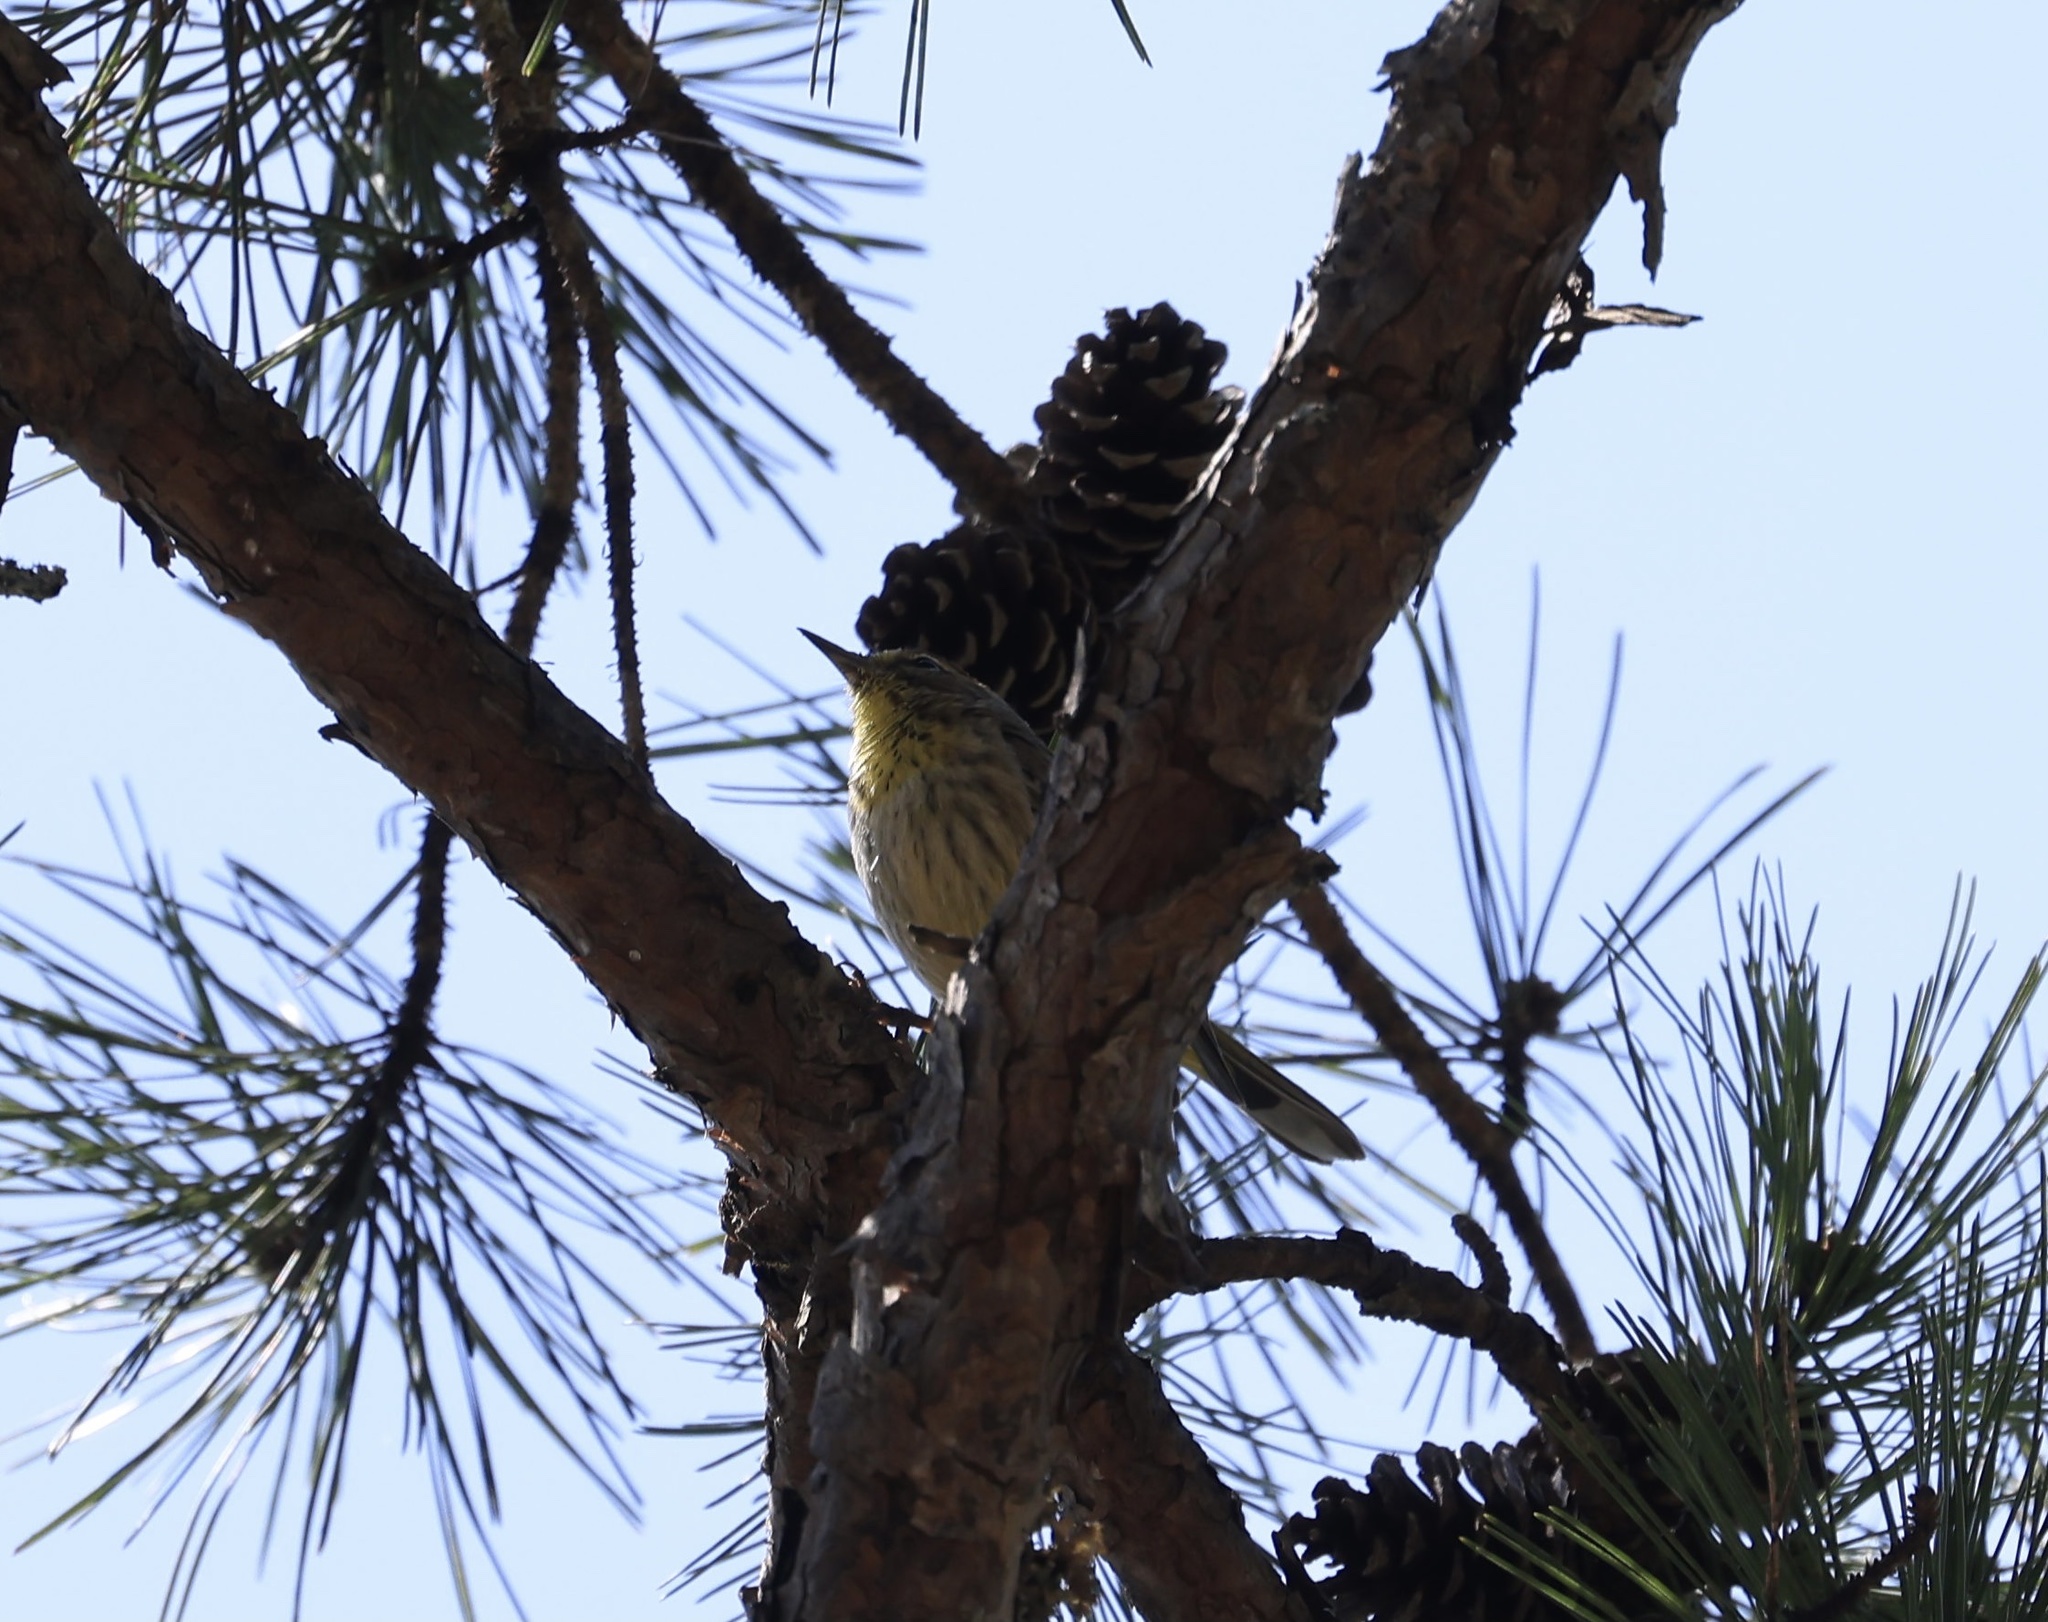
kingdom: Animalia
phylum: Chordata
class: Aves
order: Passeriformes
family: Parulidae
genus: Setophaga
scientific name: Setophaga palmarum
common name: Palm warbler
